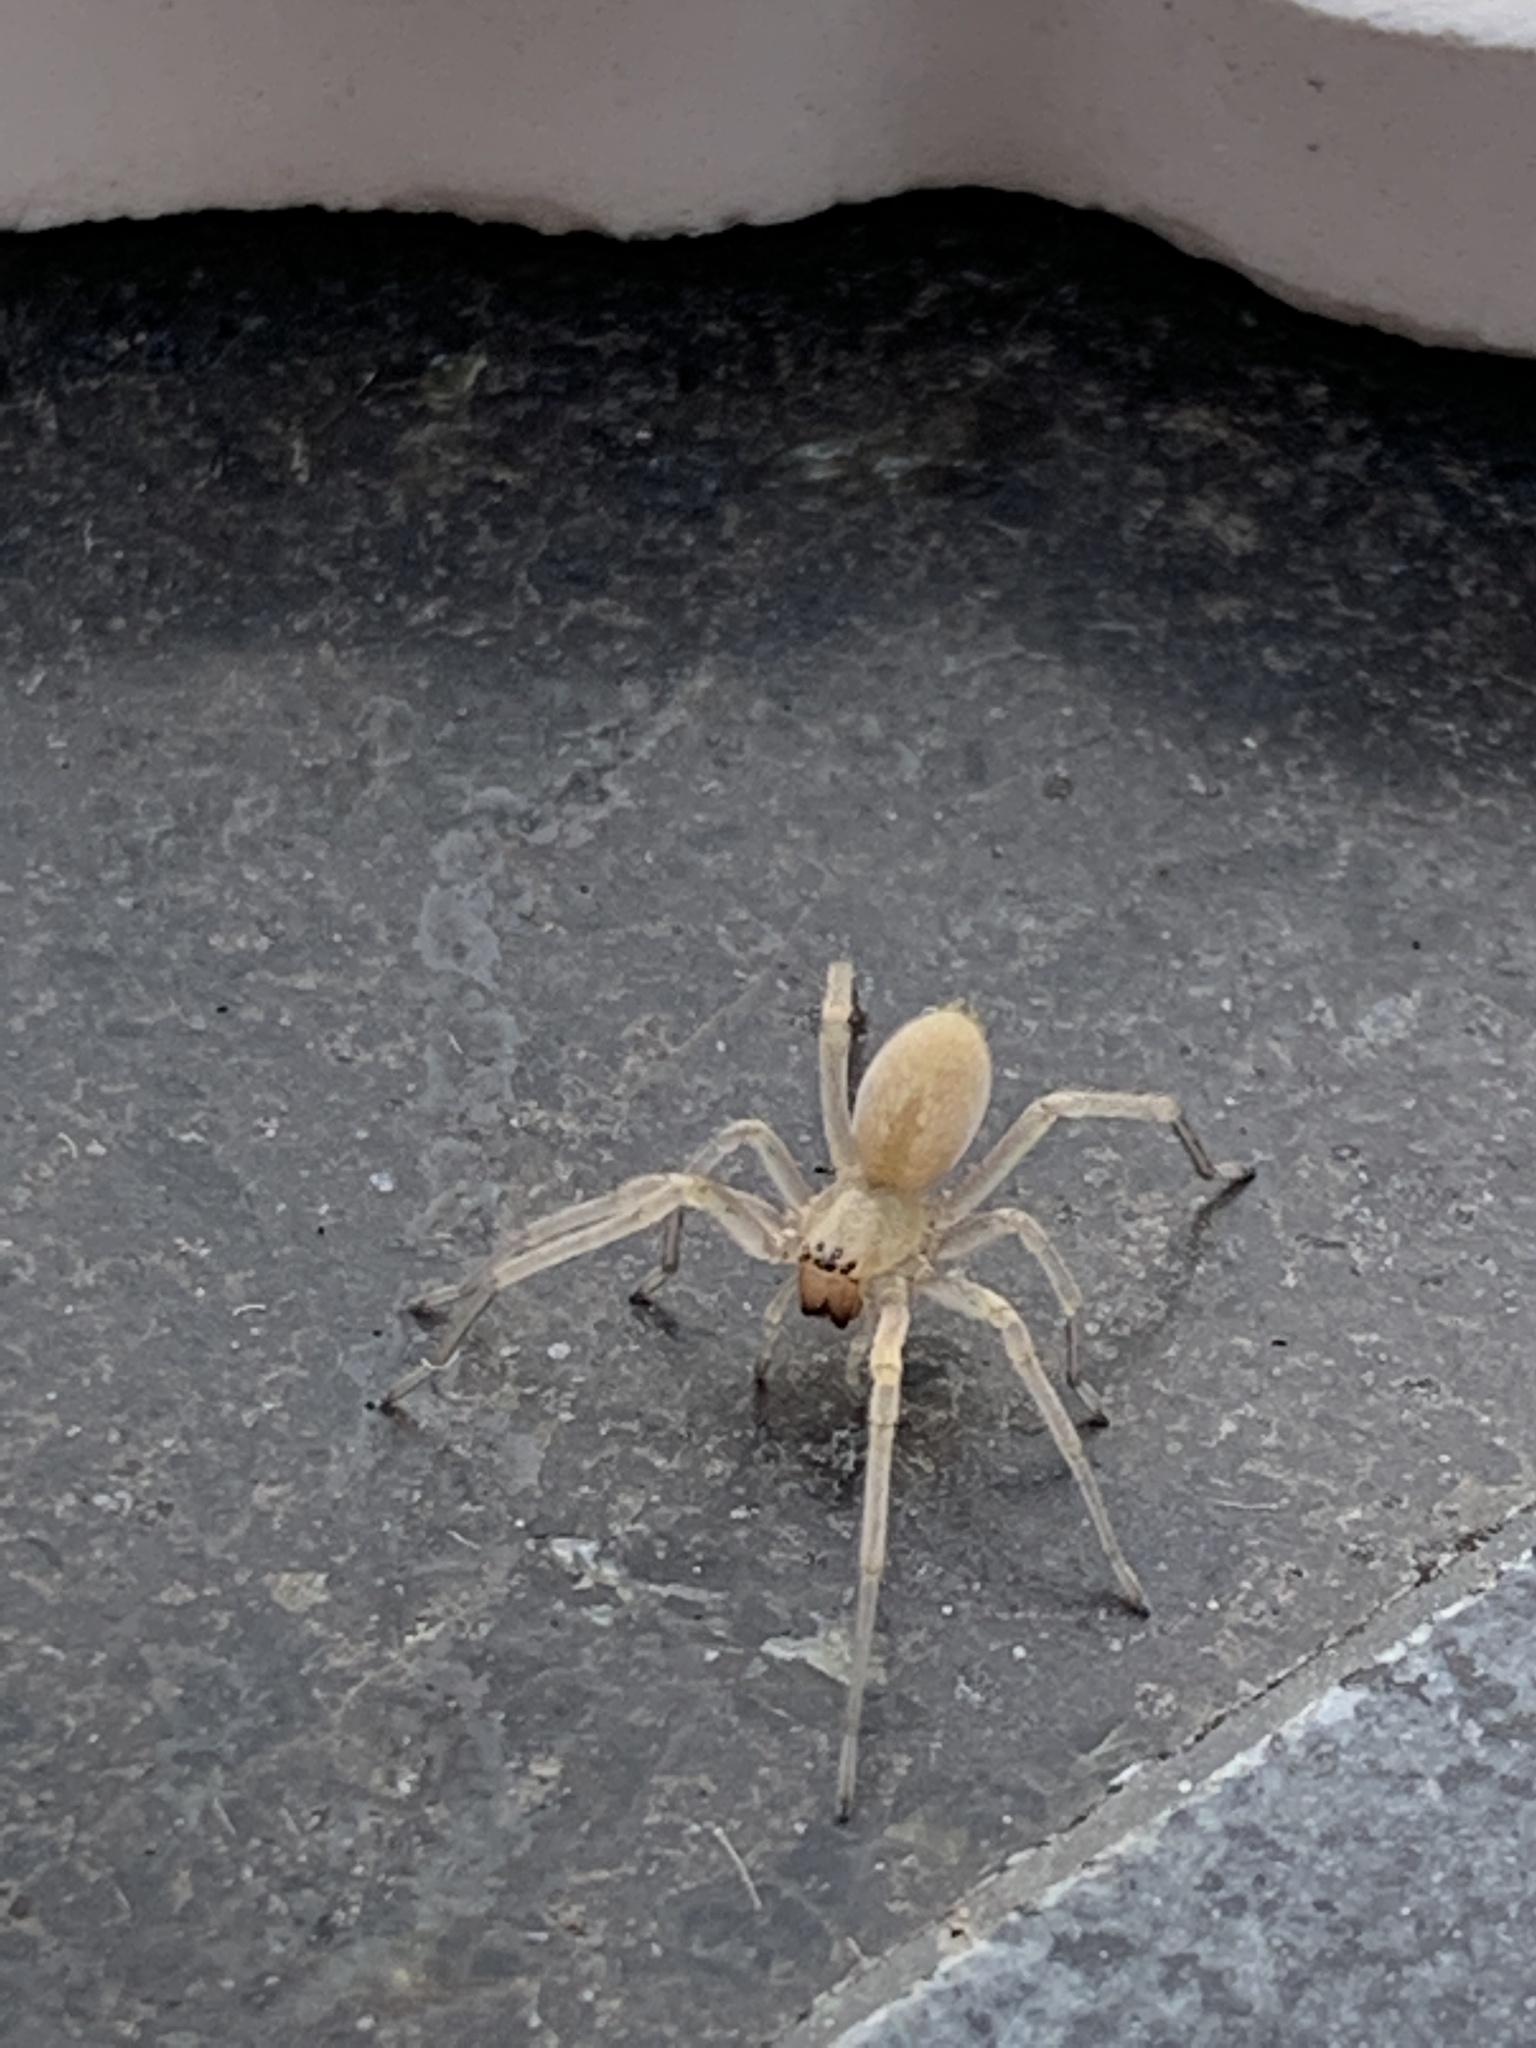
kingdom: Animalia
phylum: Arthropoda
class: Arachnida
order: Araneae
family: Cheiracanthiidae
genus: Cheiracanthium
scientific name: Cheiracanthium mildei
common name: Northern yellow sac spider
